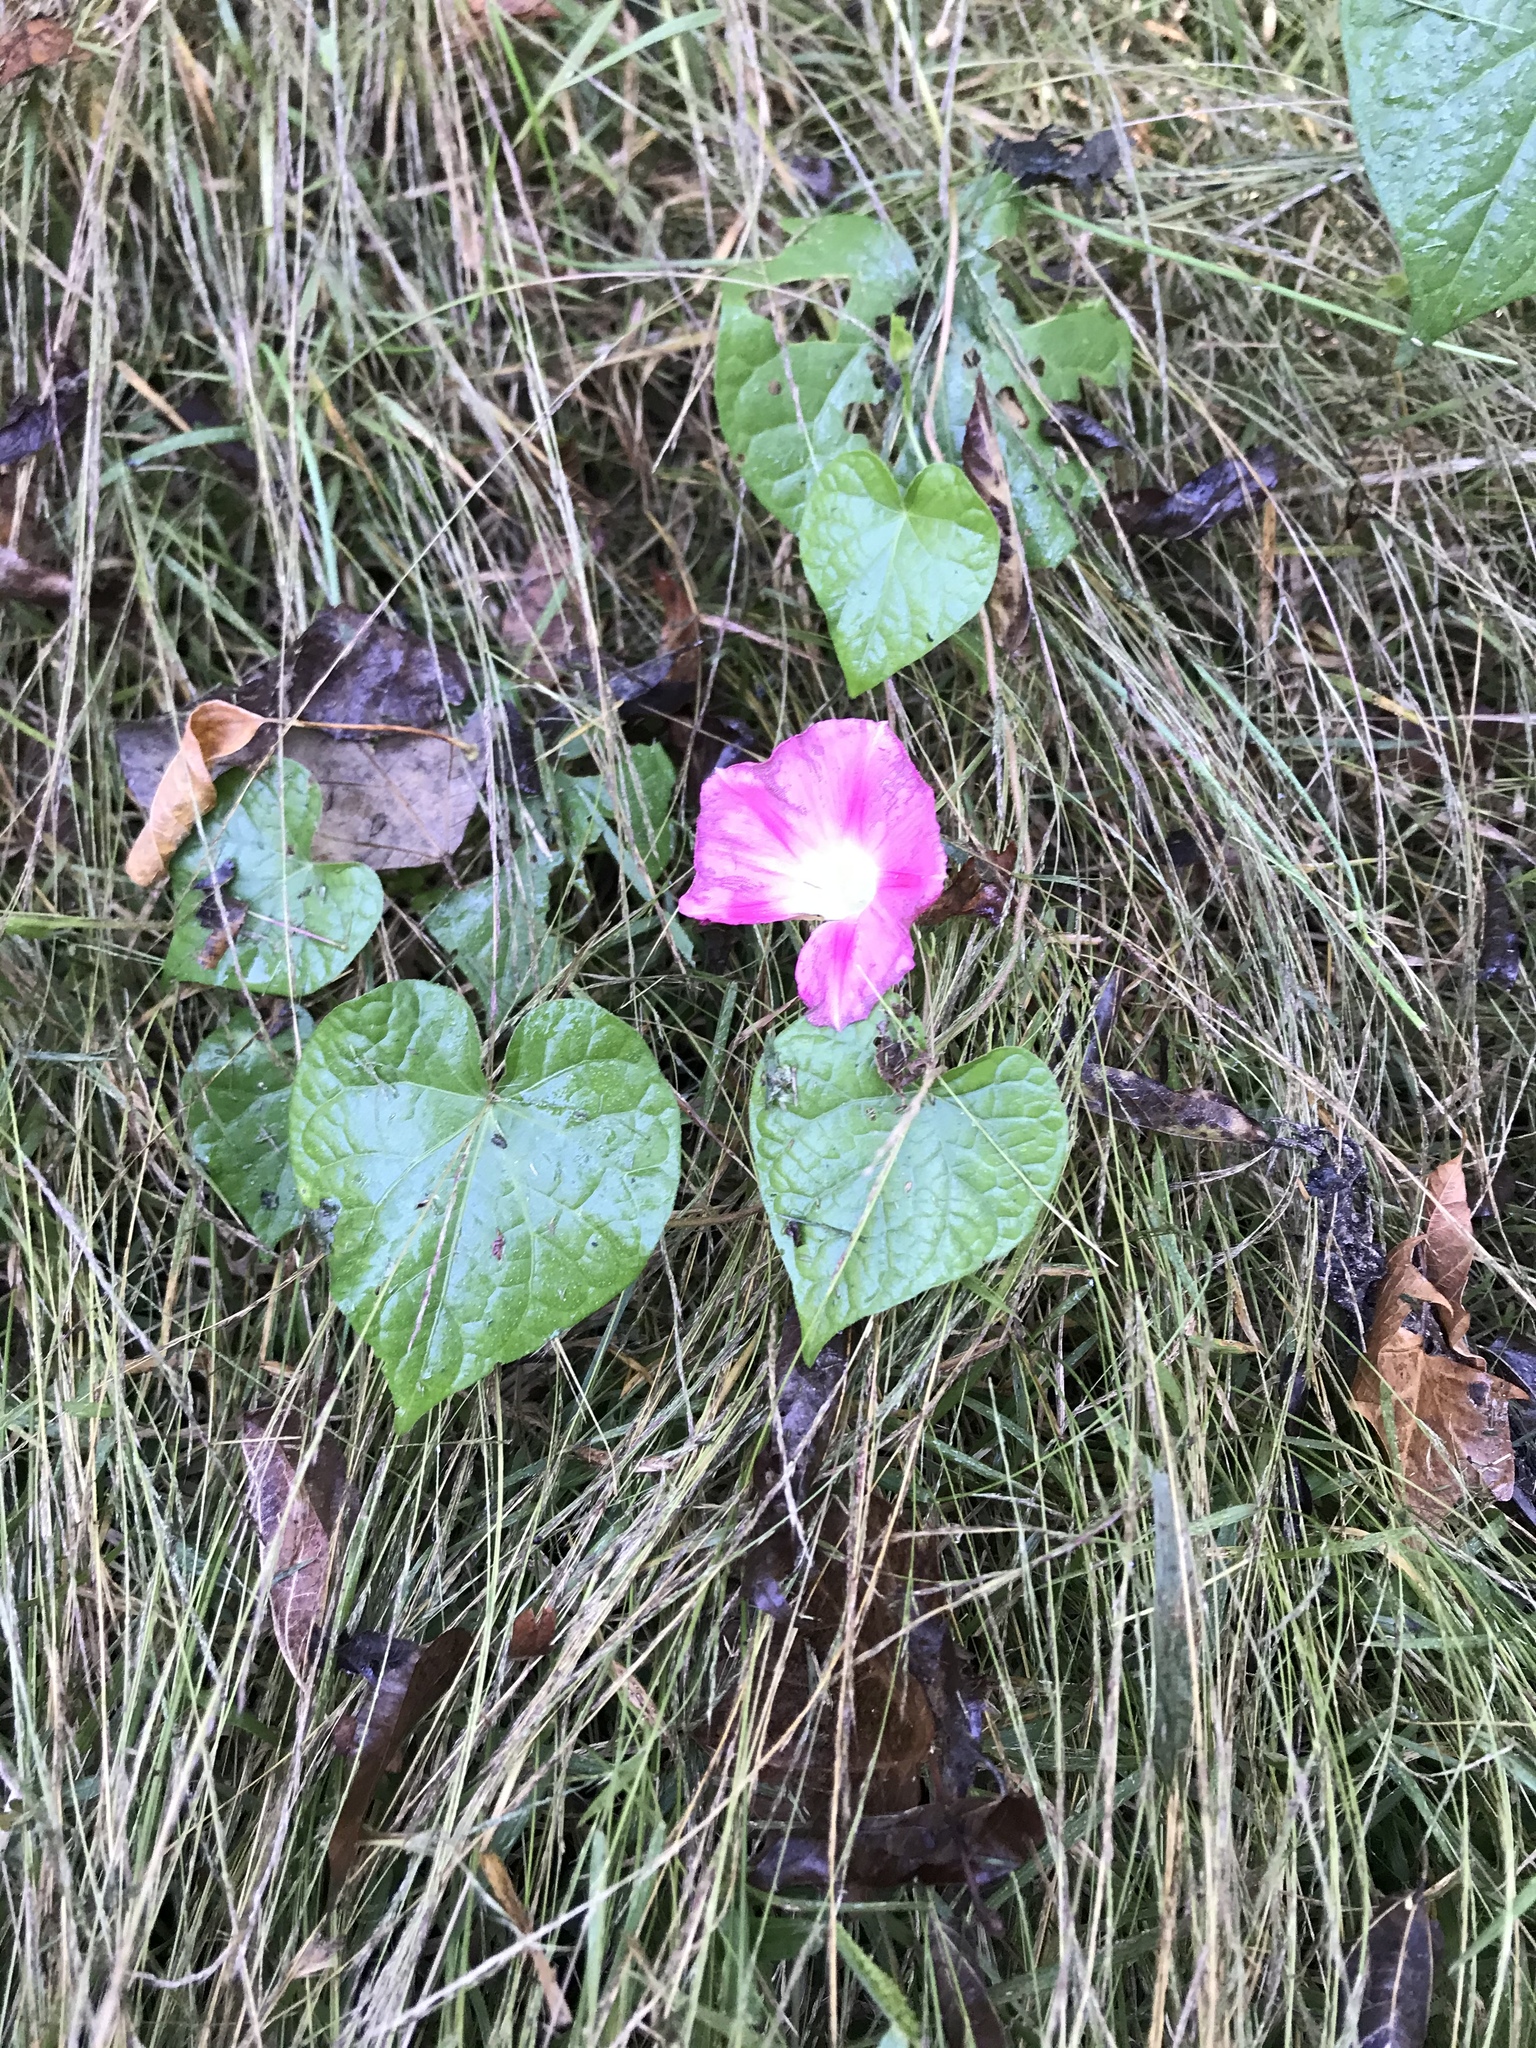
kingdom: Plantae
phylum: Tracheophyta
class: Magnoliopsida
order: Solanales
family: Convolvulaceae
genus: Ipomoea
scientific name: Ipomoea purpurea
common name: Common morning-glory
